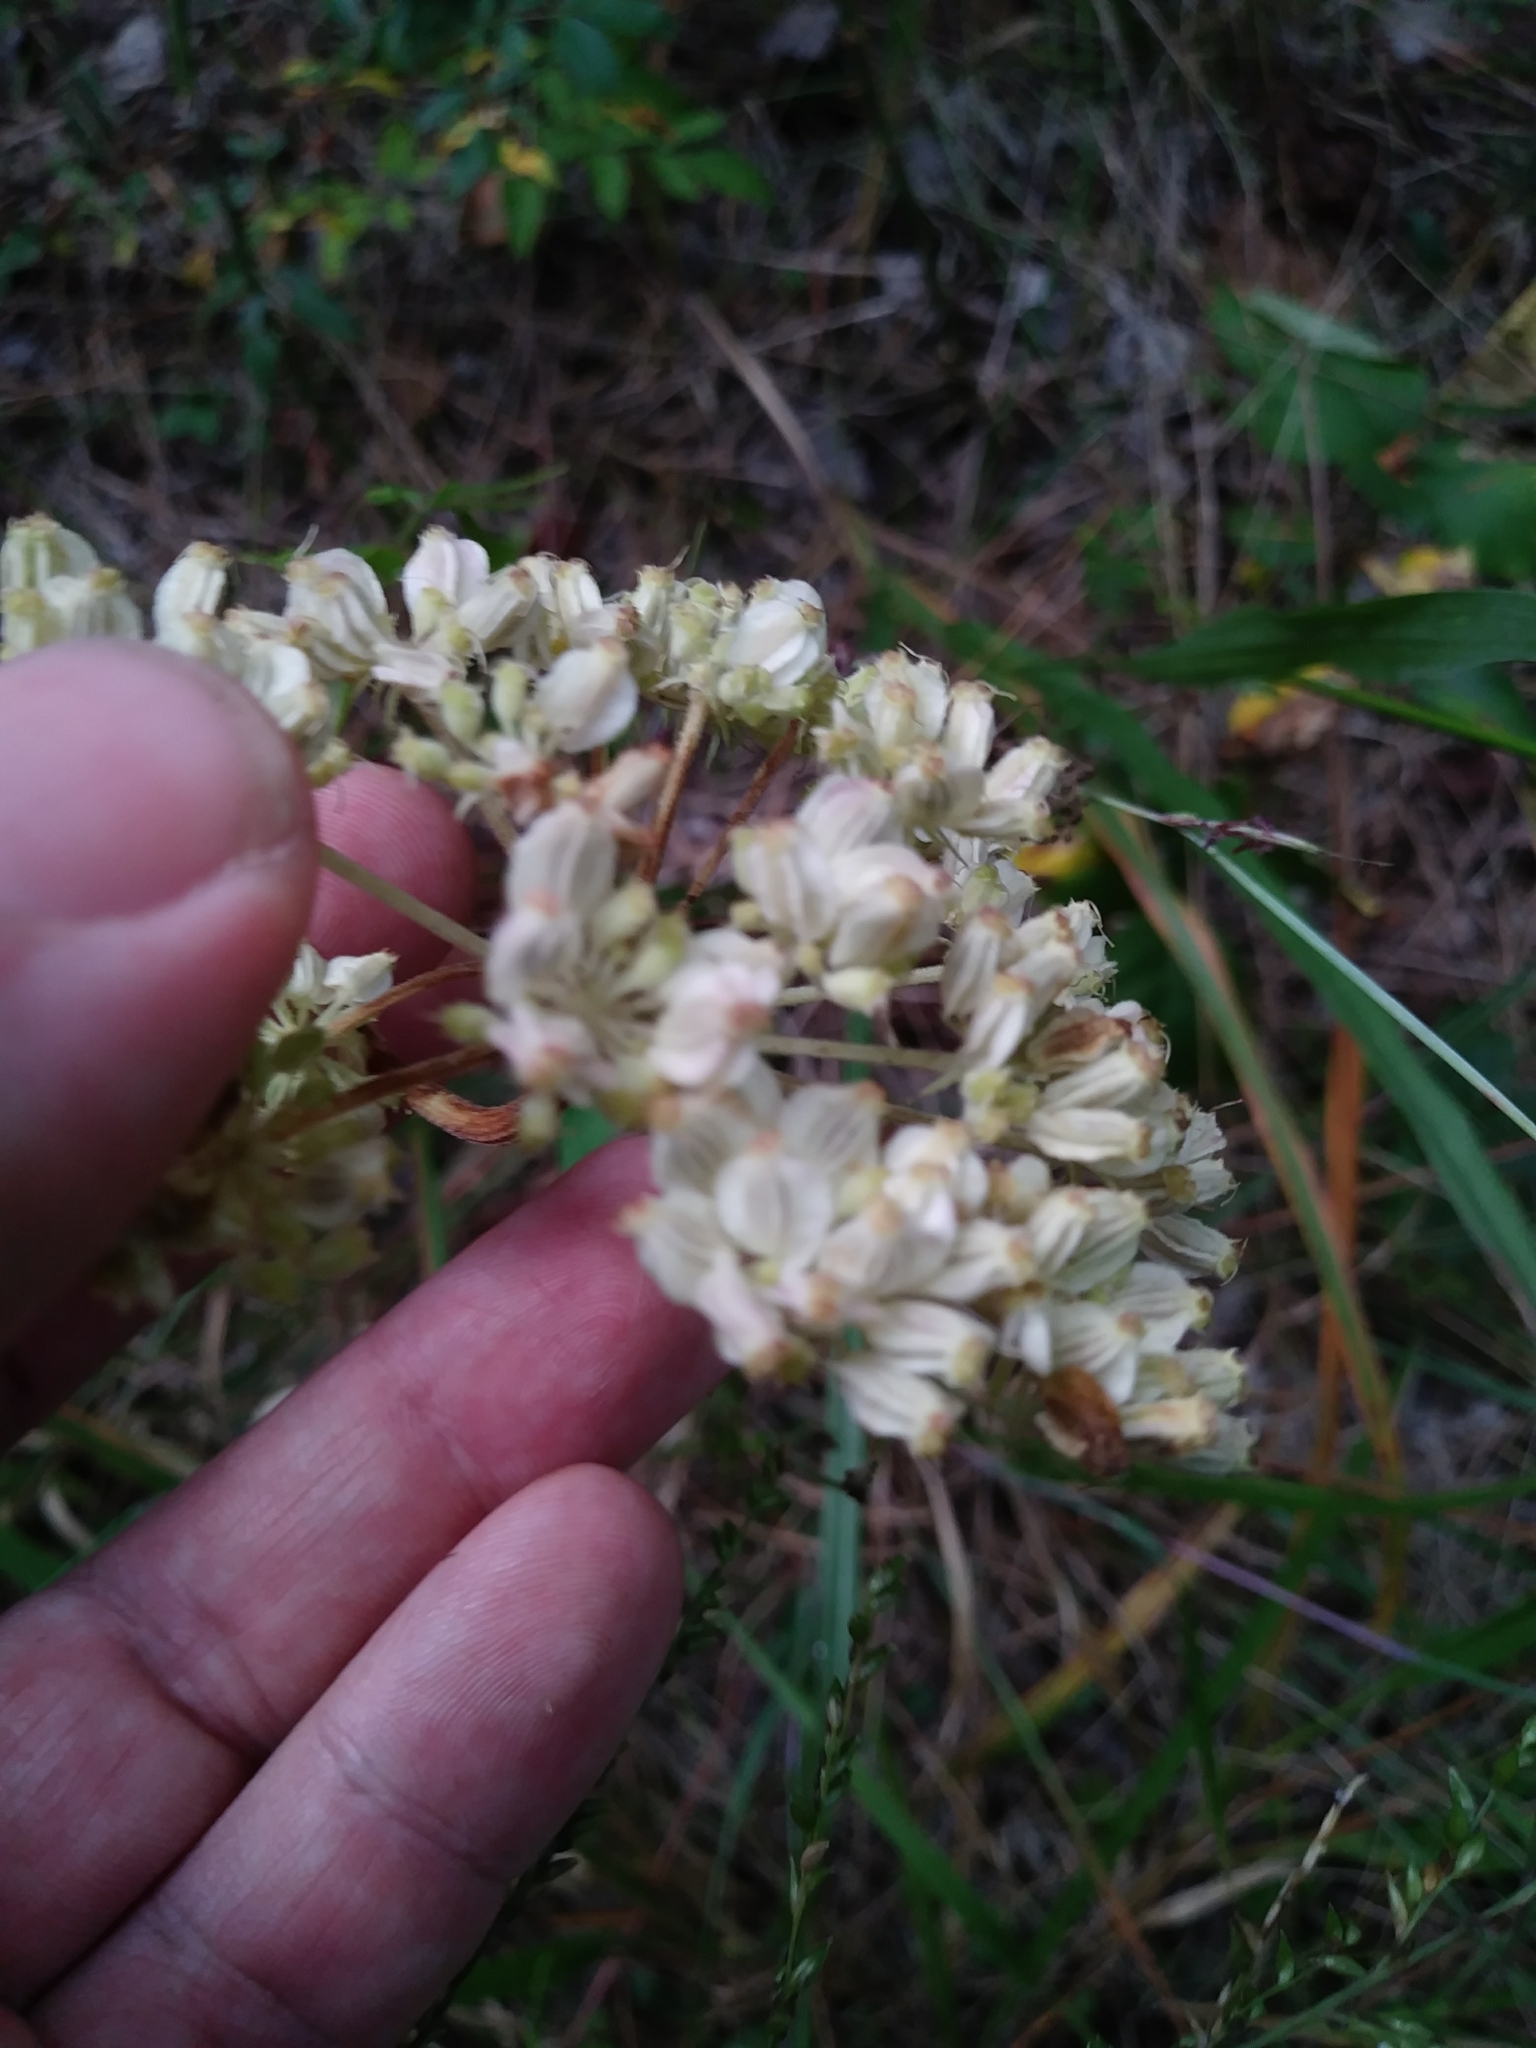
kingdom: Plantae
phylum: Tracheophyta
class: Magnoliopsida
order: Apiales
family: Apiaceae
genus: Angelica
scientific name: Angelica venenosa
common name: Hairy angelica
